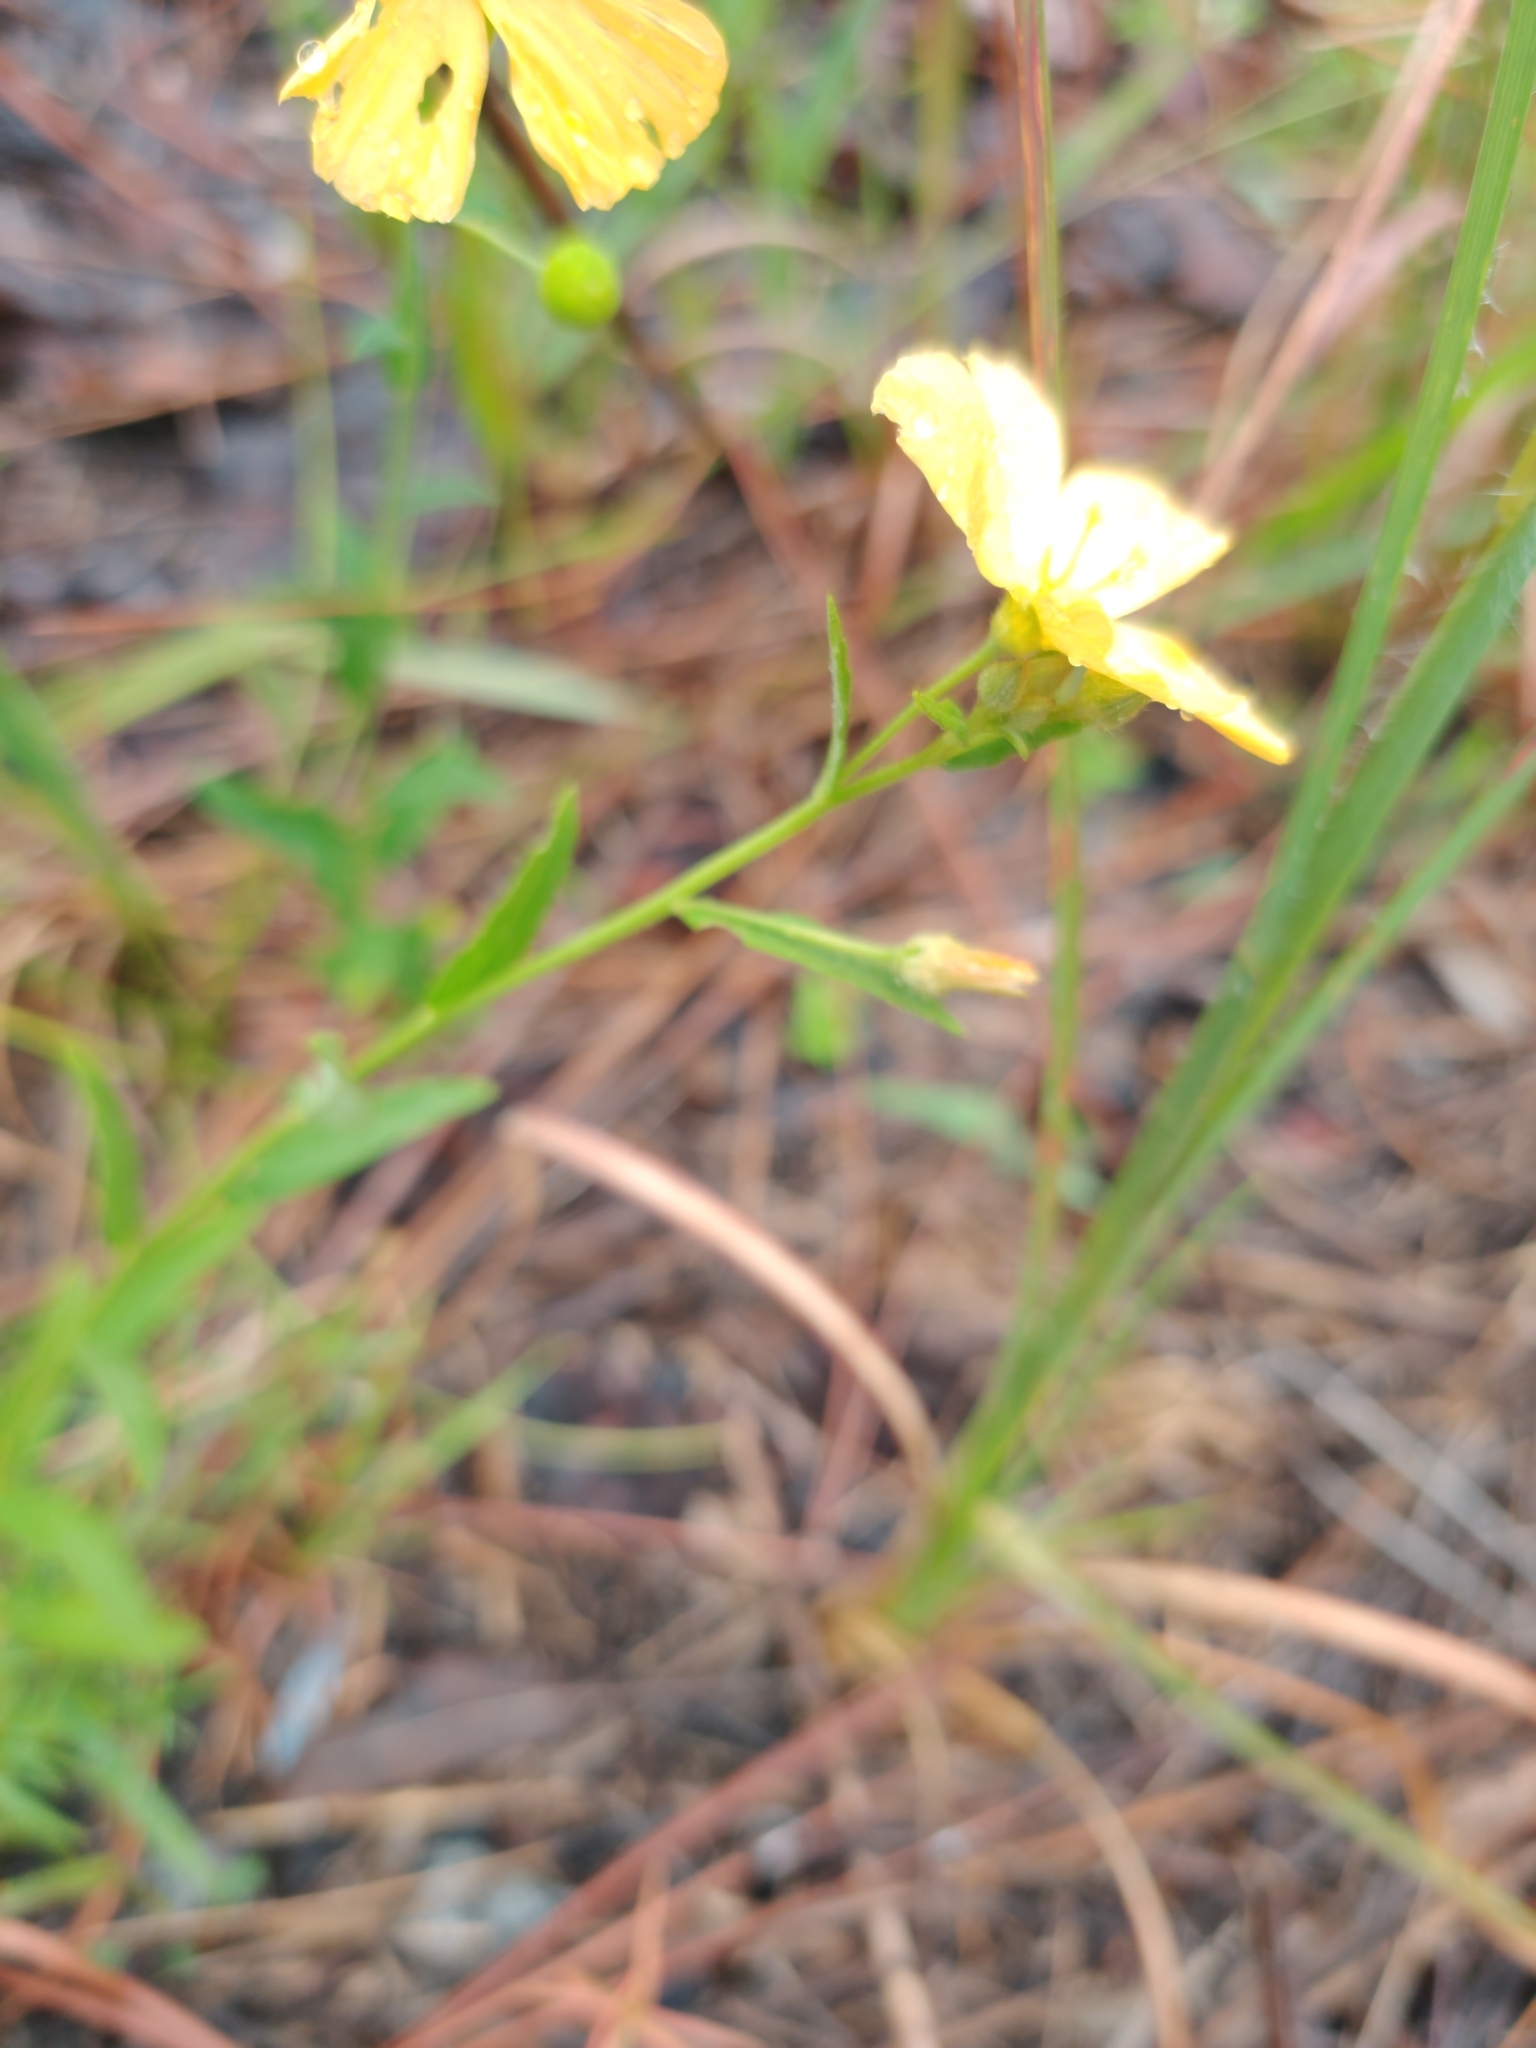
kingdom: Plantae
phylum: Tracheophyta
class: Magnoliopsida
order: Malpighiales
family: Turneraceae
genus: Piriqueta
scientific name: Piriqueta cistoides
